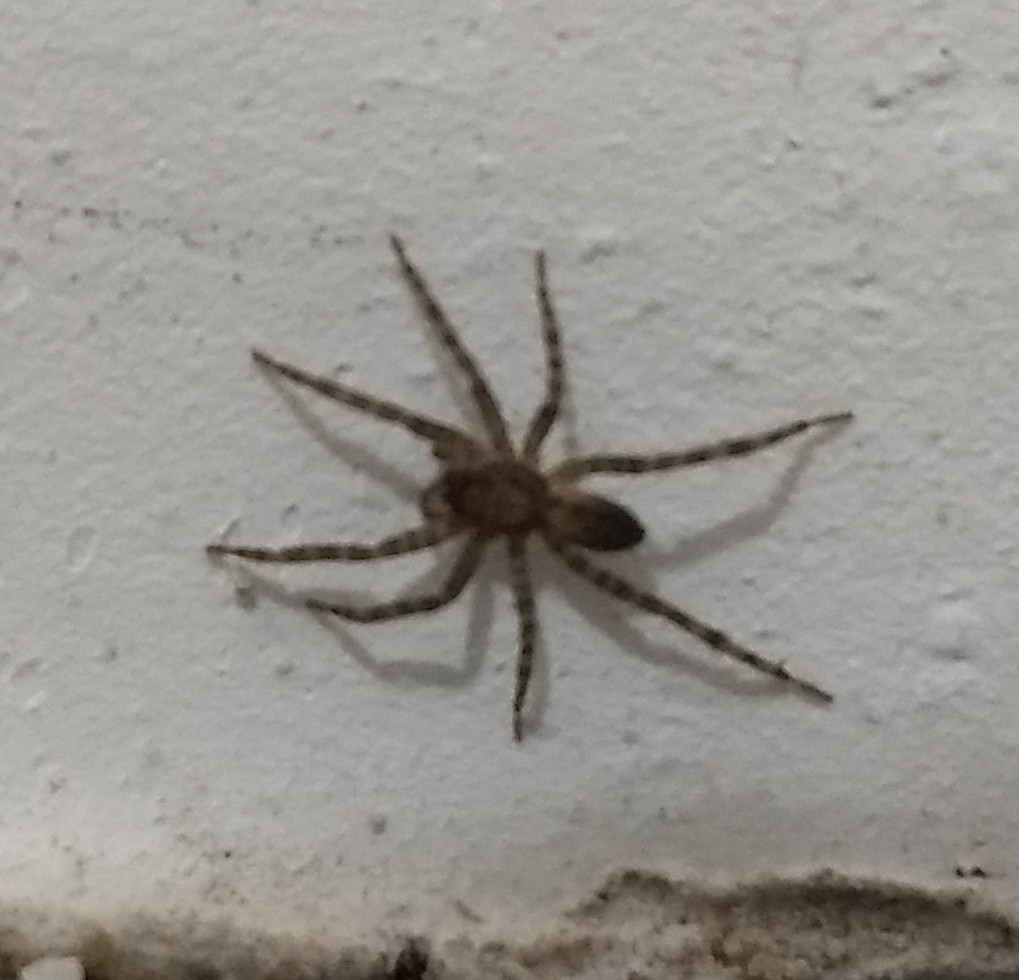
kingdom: Animalia
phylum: Arthropoda
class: Arachnida
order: Araneae
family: Ctenidae
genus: Asthenoctenus
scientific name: Asthenoctenus borellii
